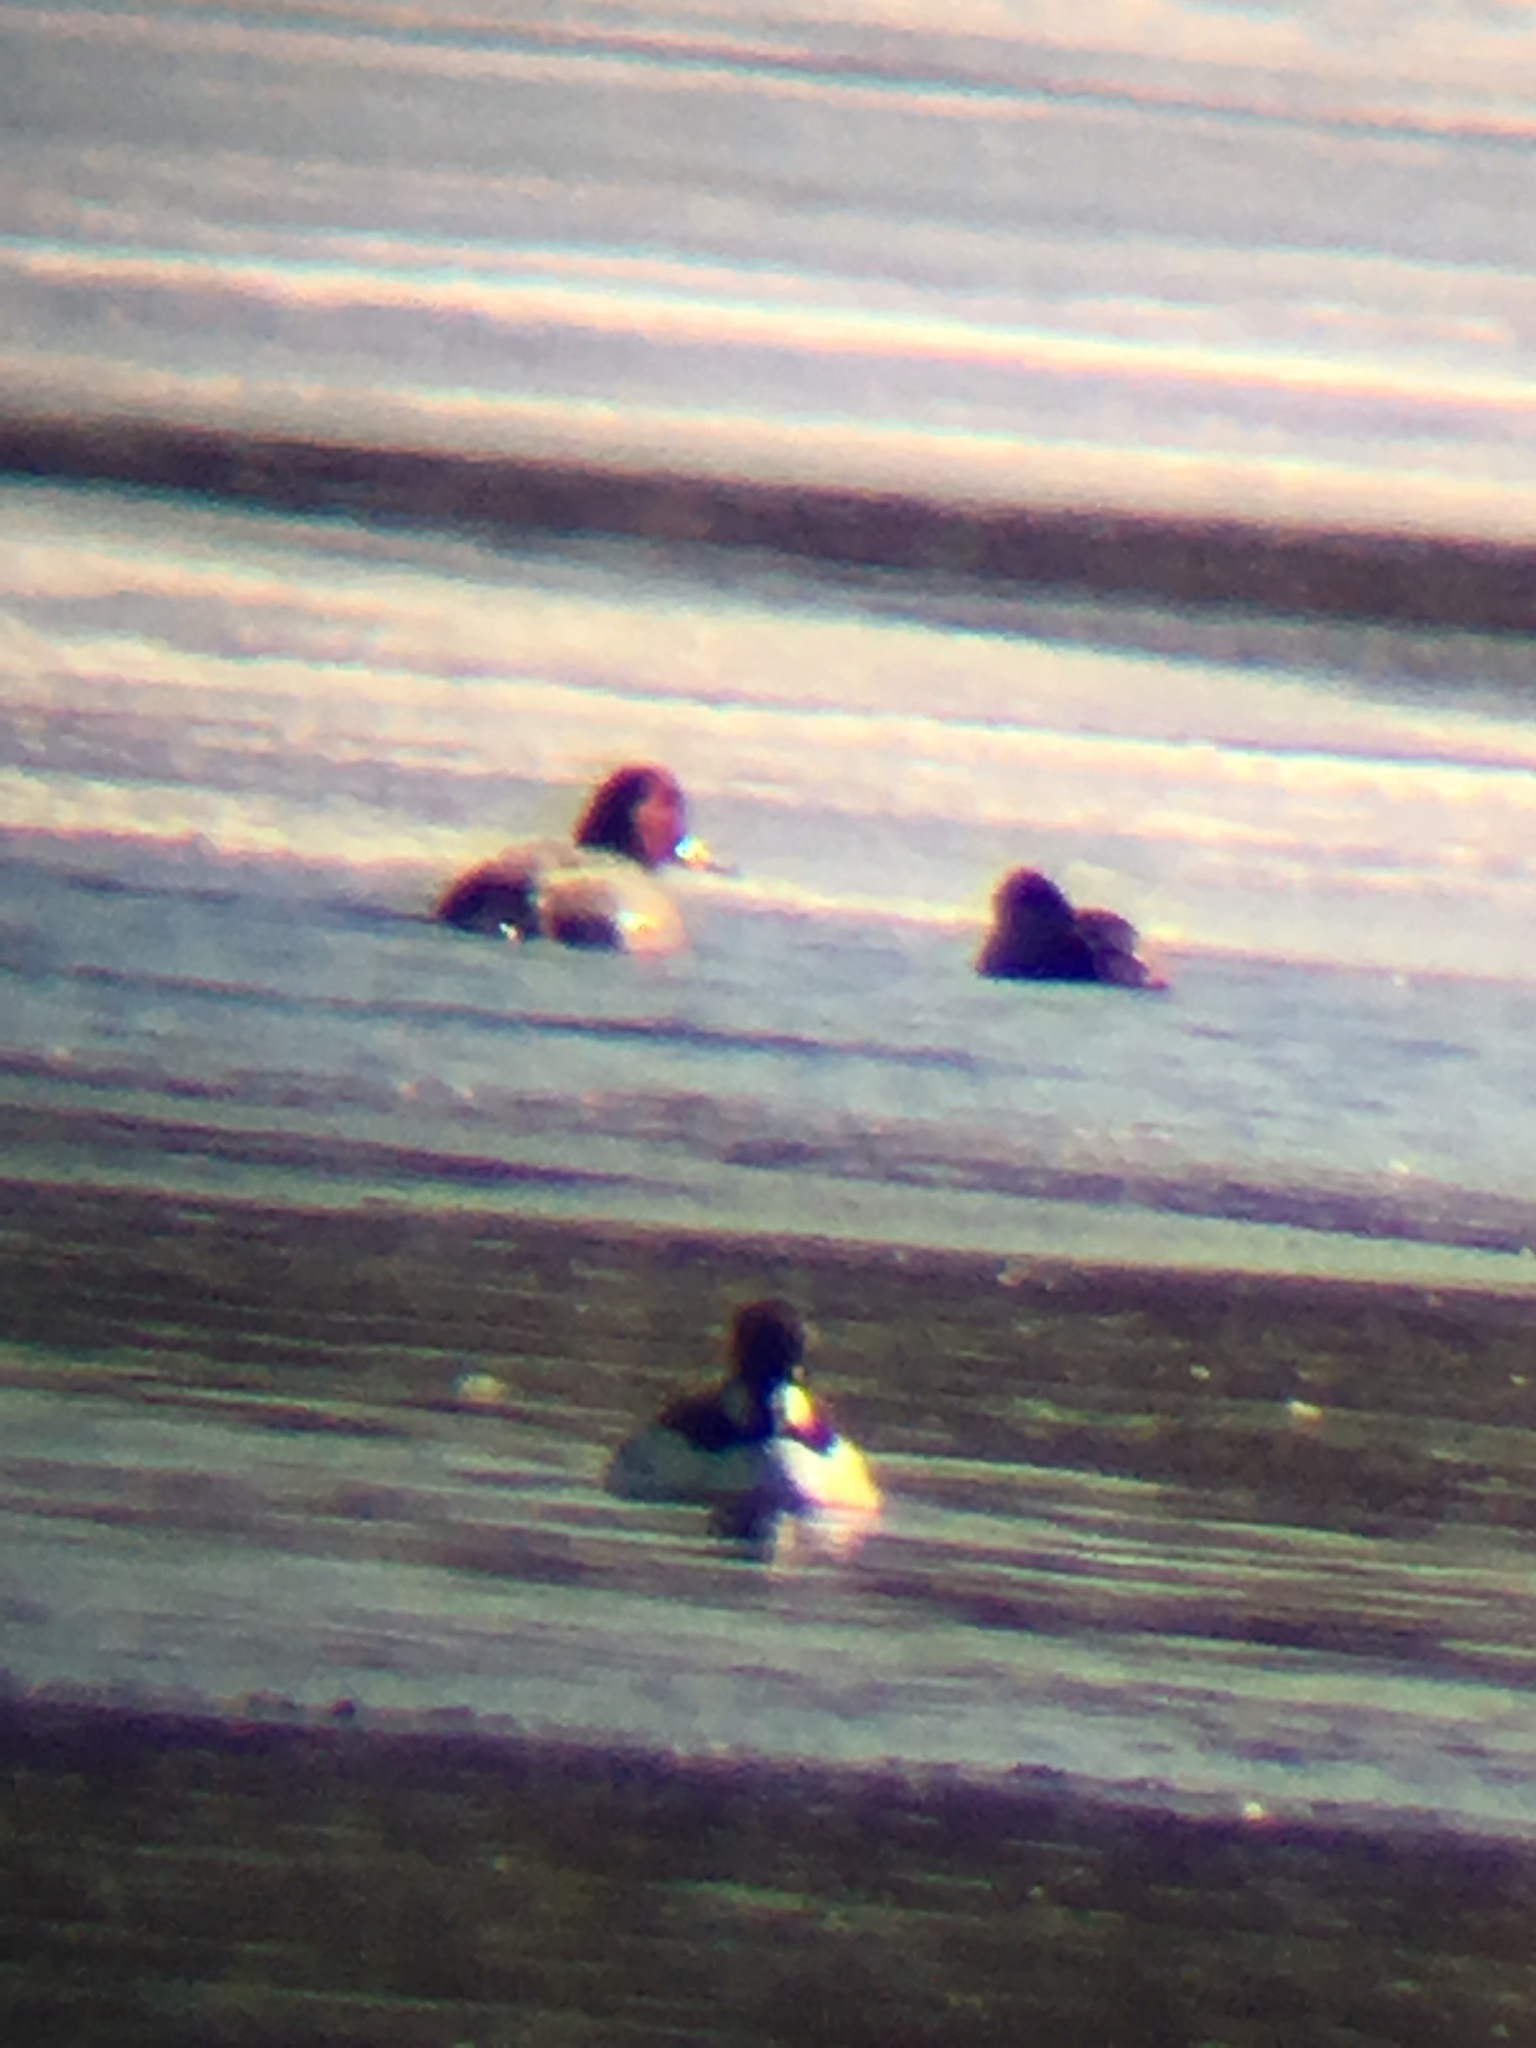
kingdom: Animalia
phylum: Chordata
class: Aves
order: Anseriformes
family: Anatidae
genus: Aythya
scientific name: Aythya americana
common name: Redhead
